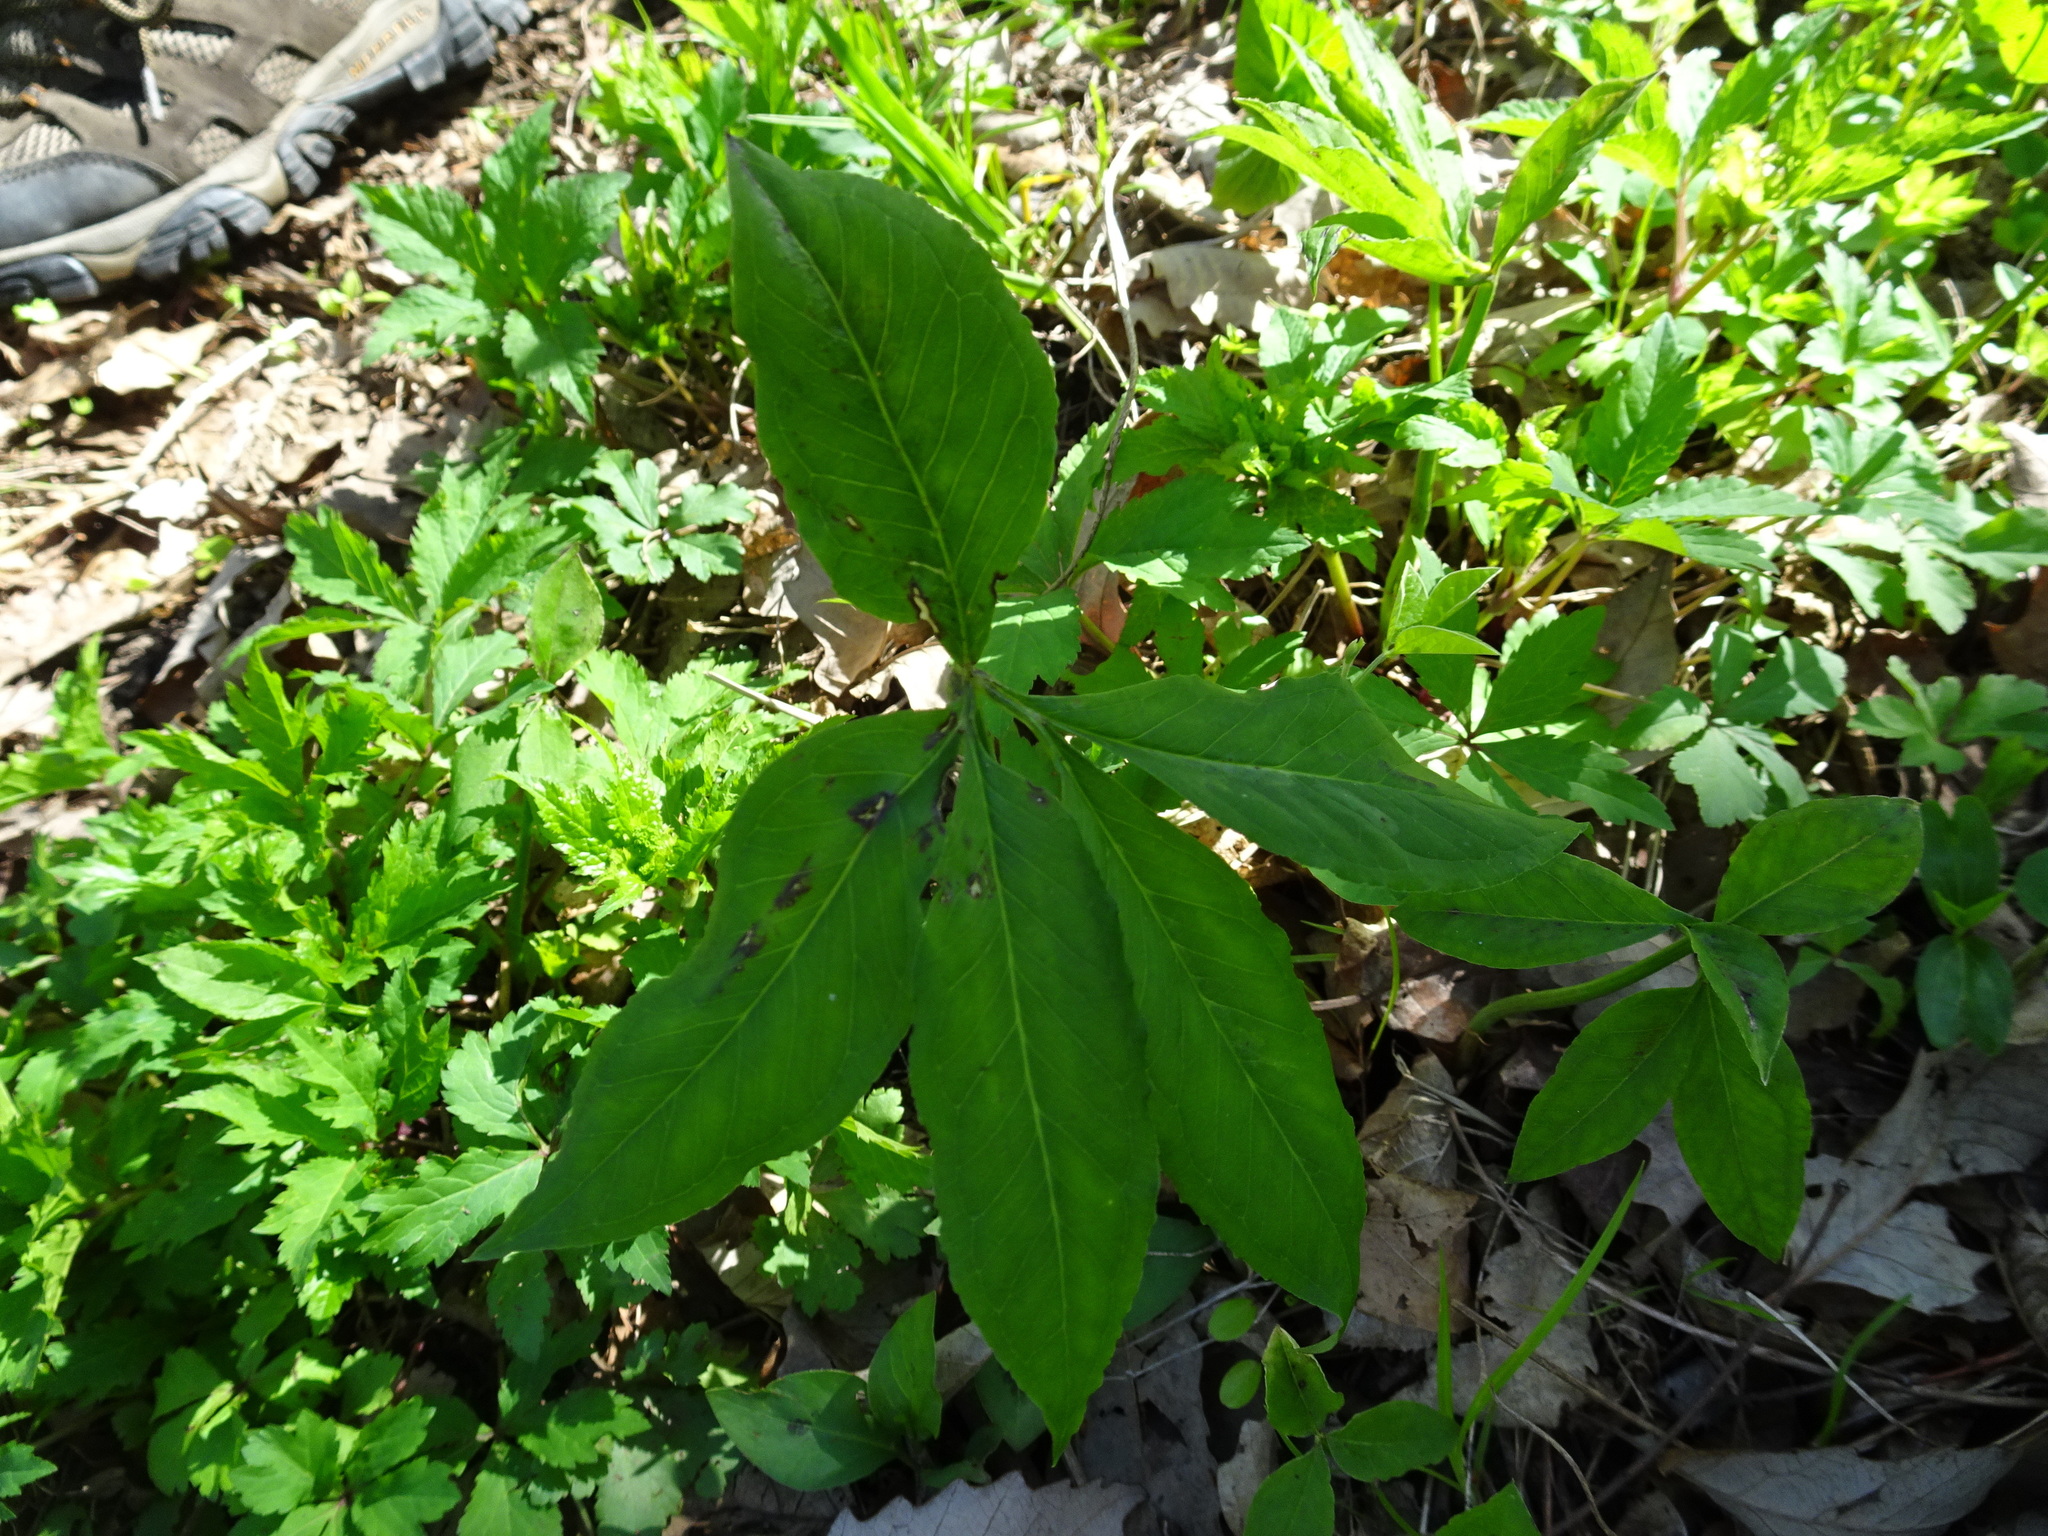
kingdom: Plantae
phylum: Tracheophyta
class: Liliopsida
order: Alismatales
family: Araceae
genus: Arisaema
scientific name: Arisaema dracontium
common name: Dragon-arum
